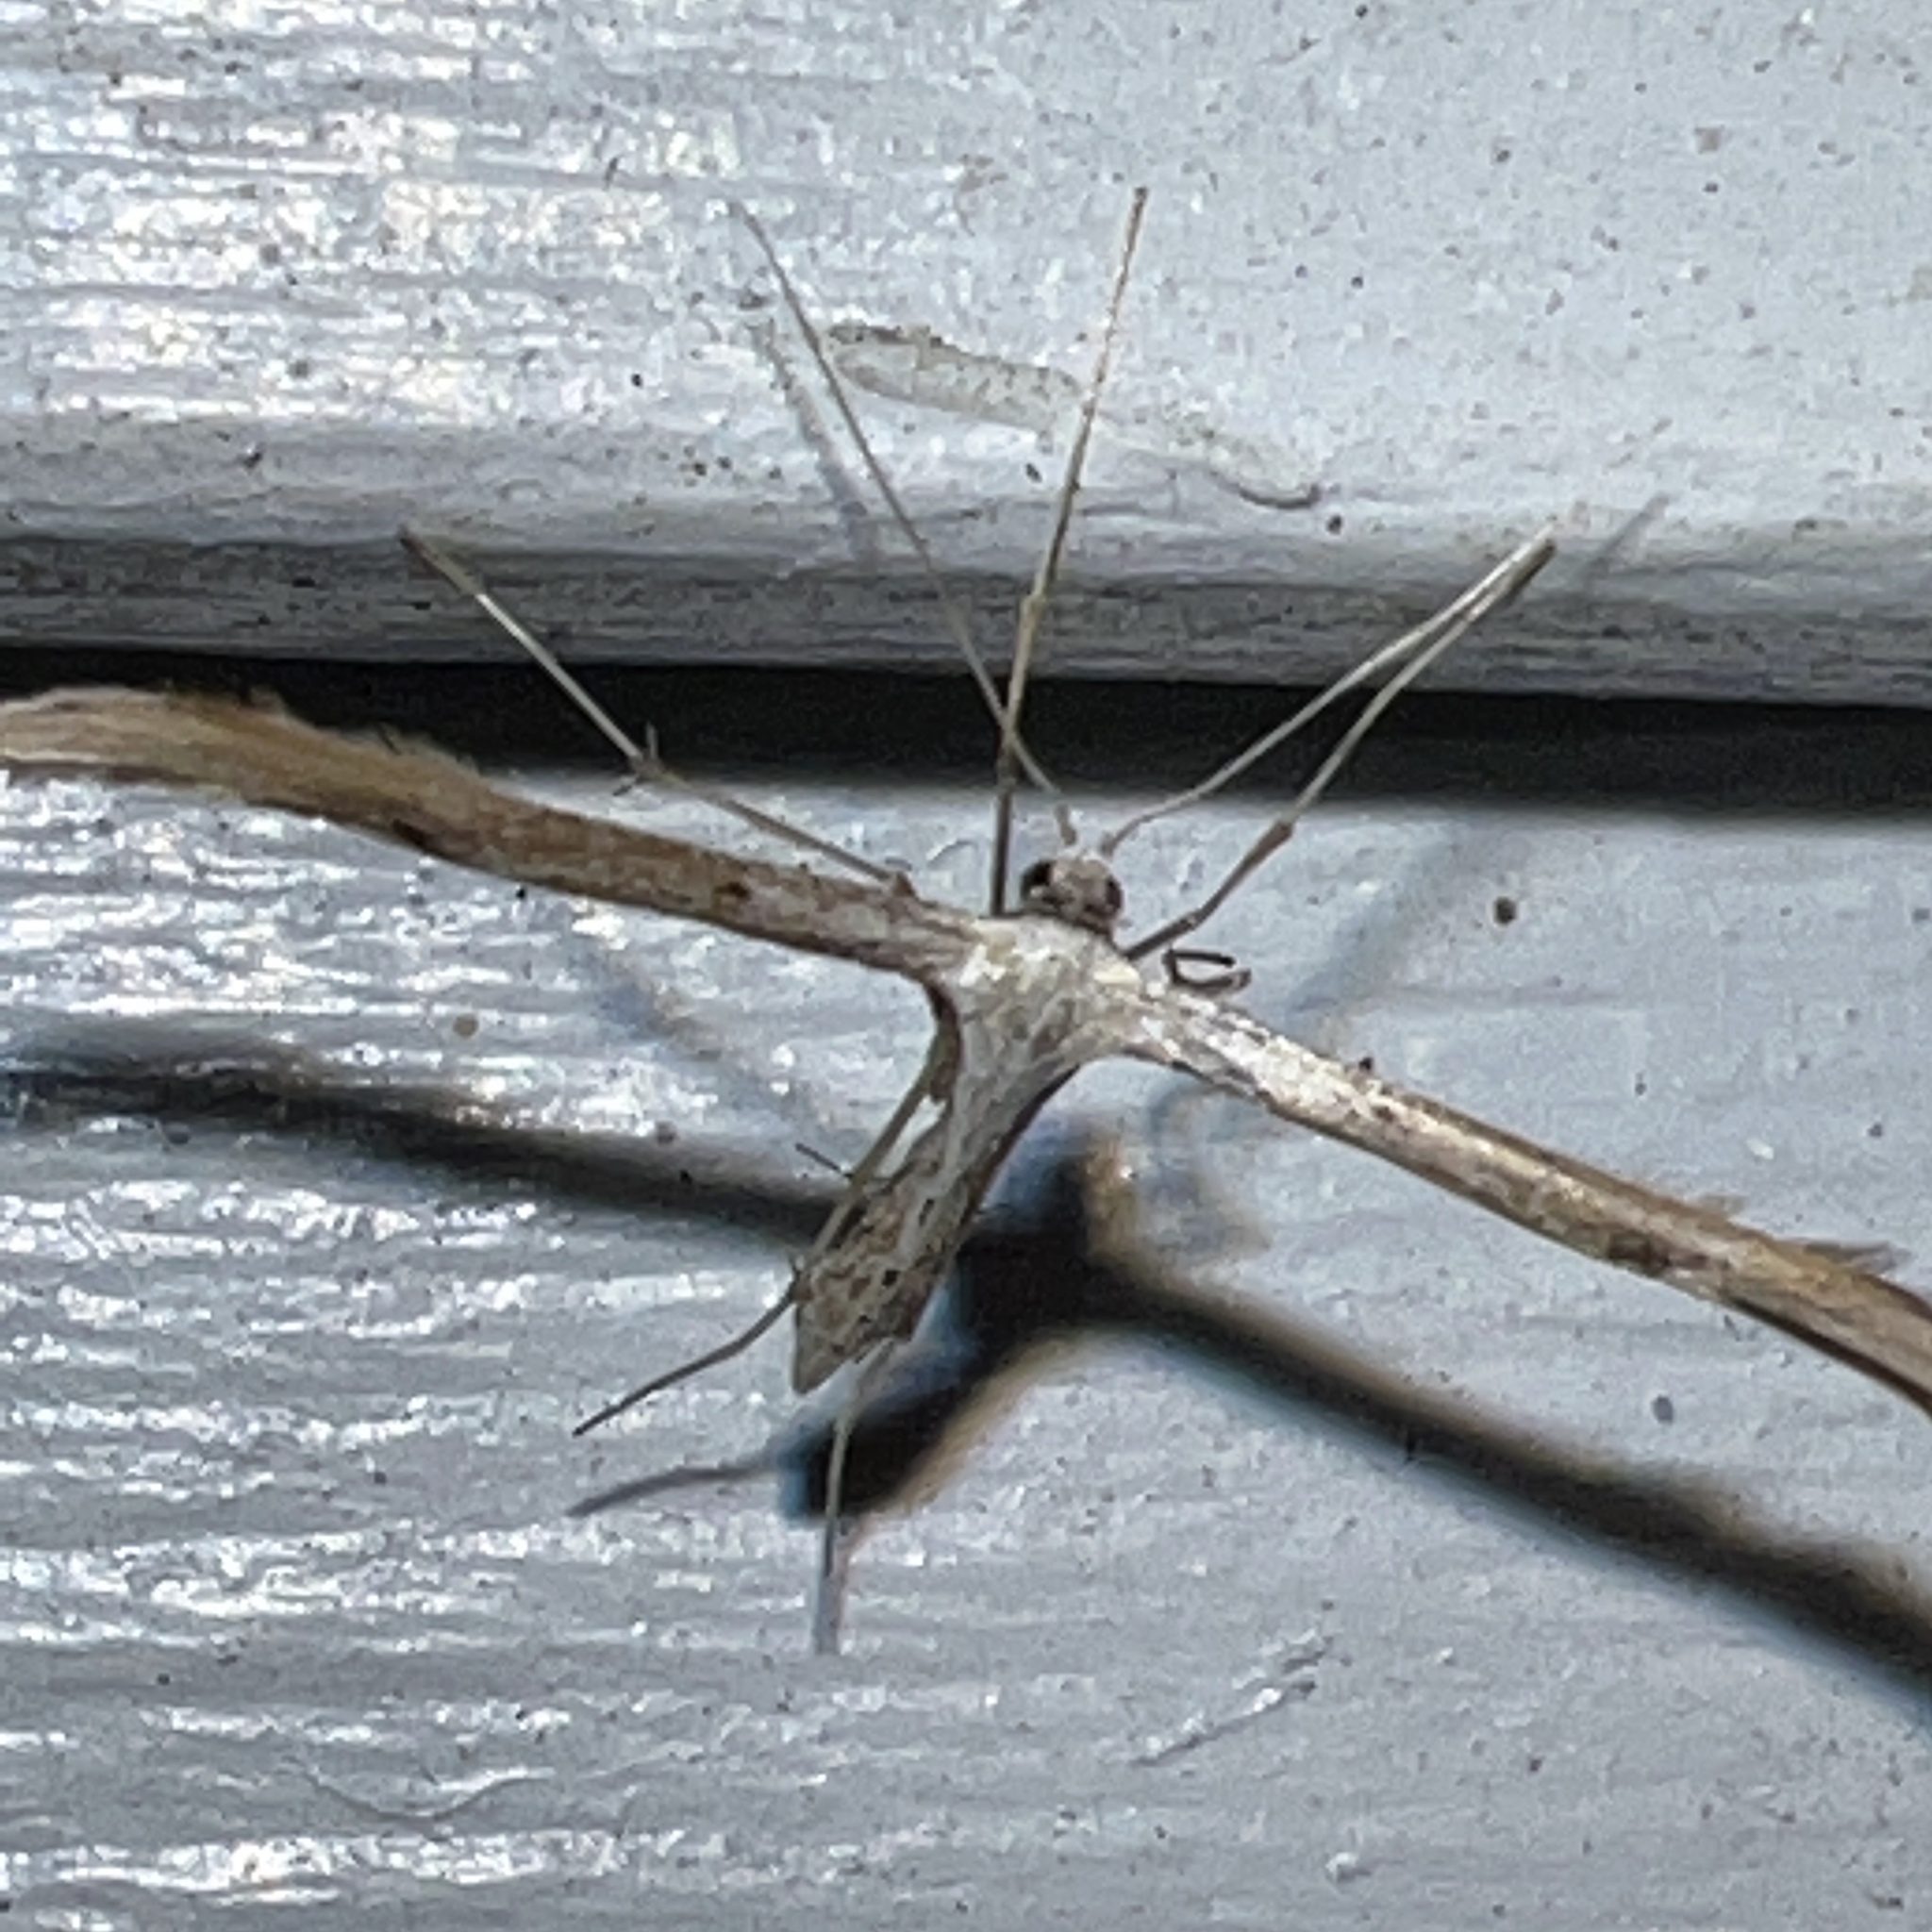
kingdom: Animalia
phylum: Arthropoda
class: Insecta
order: Lepidoptera
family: Pterophoridae
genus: Emmelina
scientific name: Emmelina monodactyla
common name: Common plume
